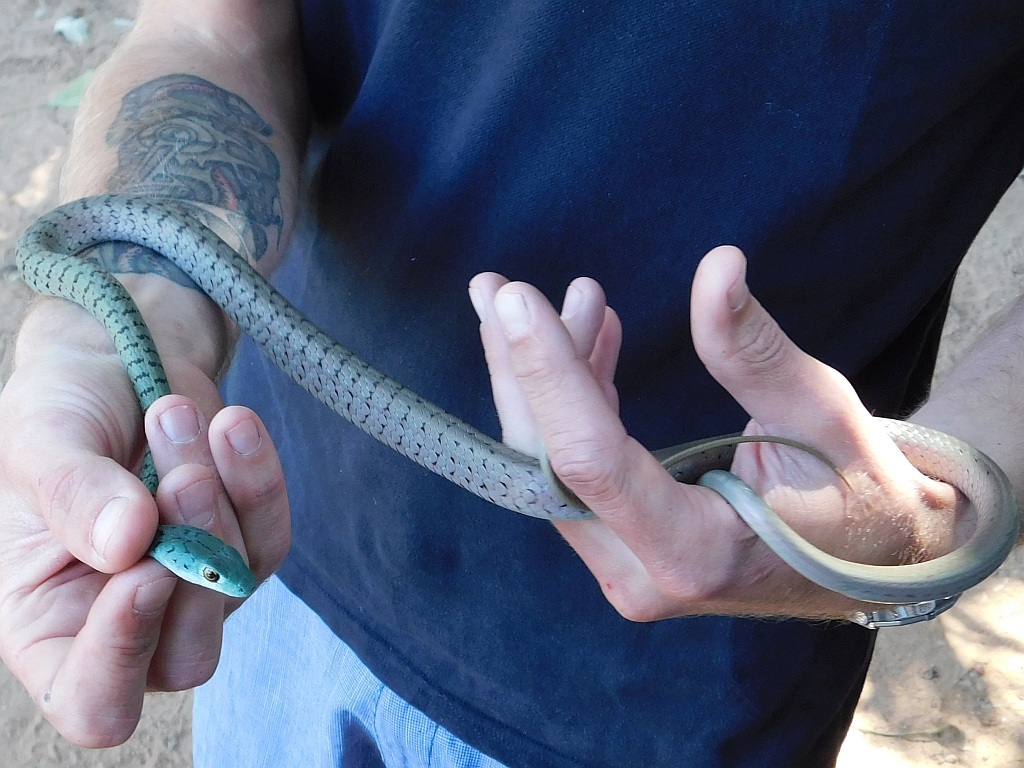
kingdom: Animalia
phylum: Chordata
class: Squamata
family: Colubridae
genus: Philothamnus
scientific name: Philothamnus semivariegatus
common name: Spotted bush snake
